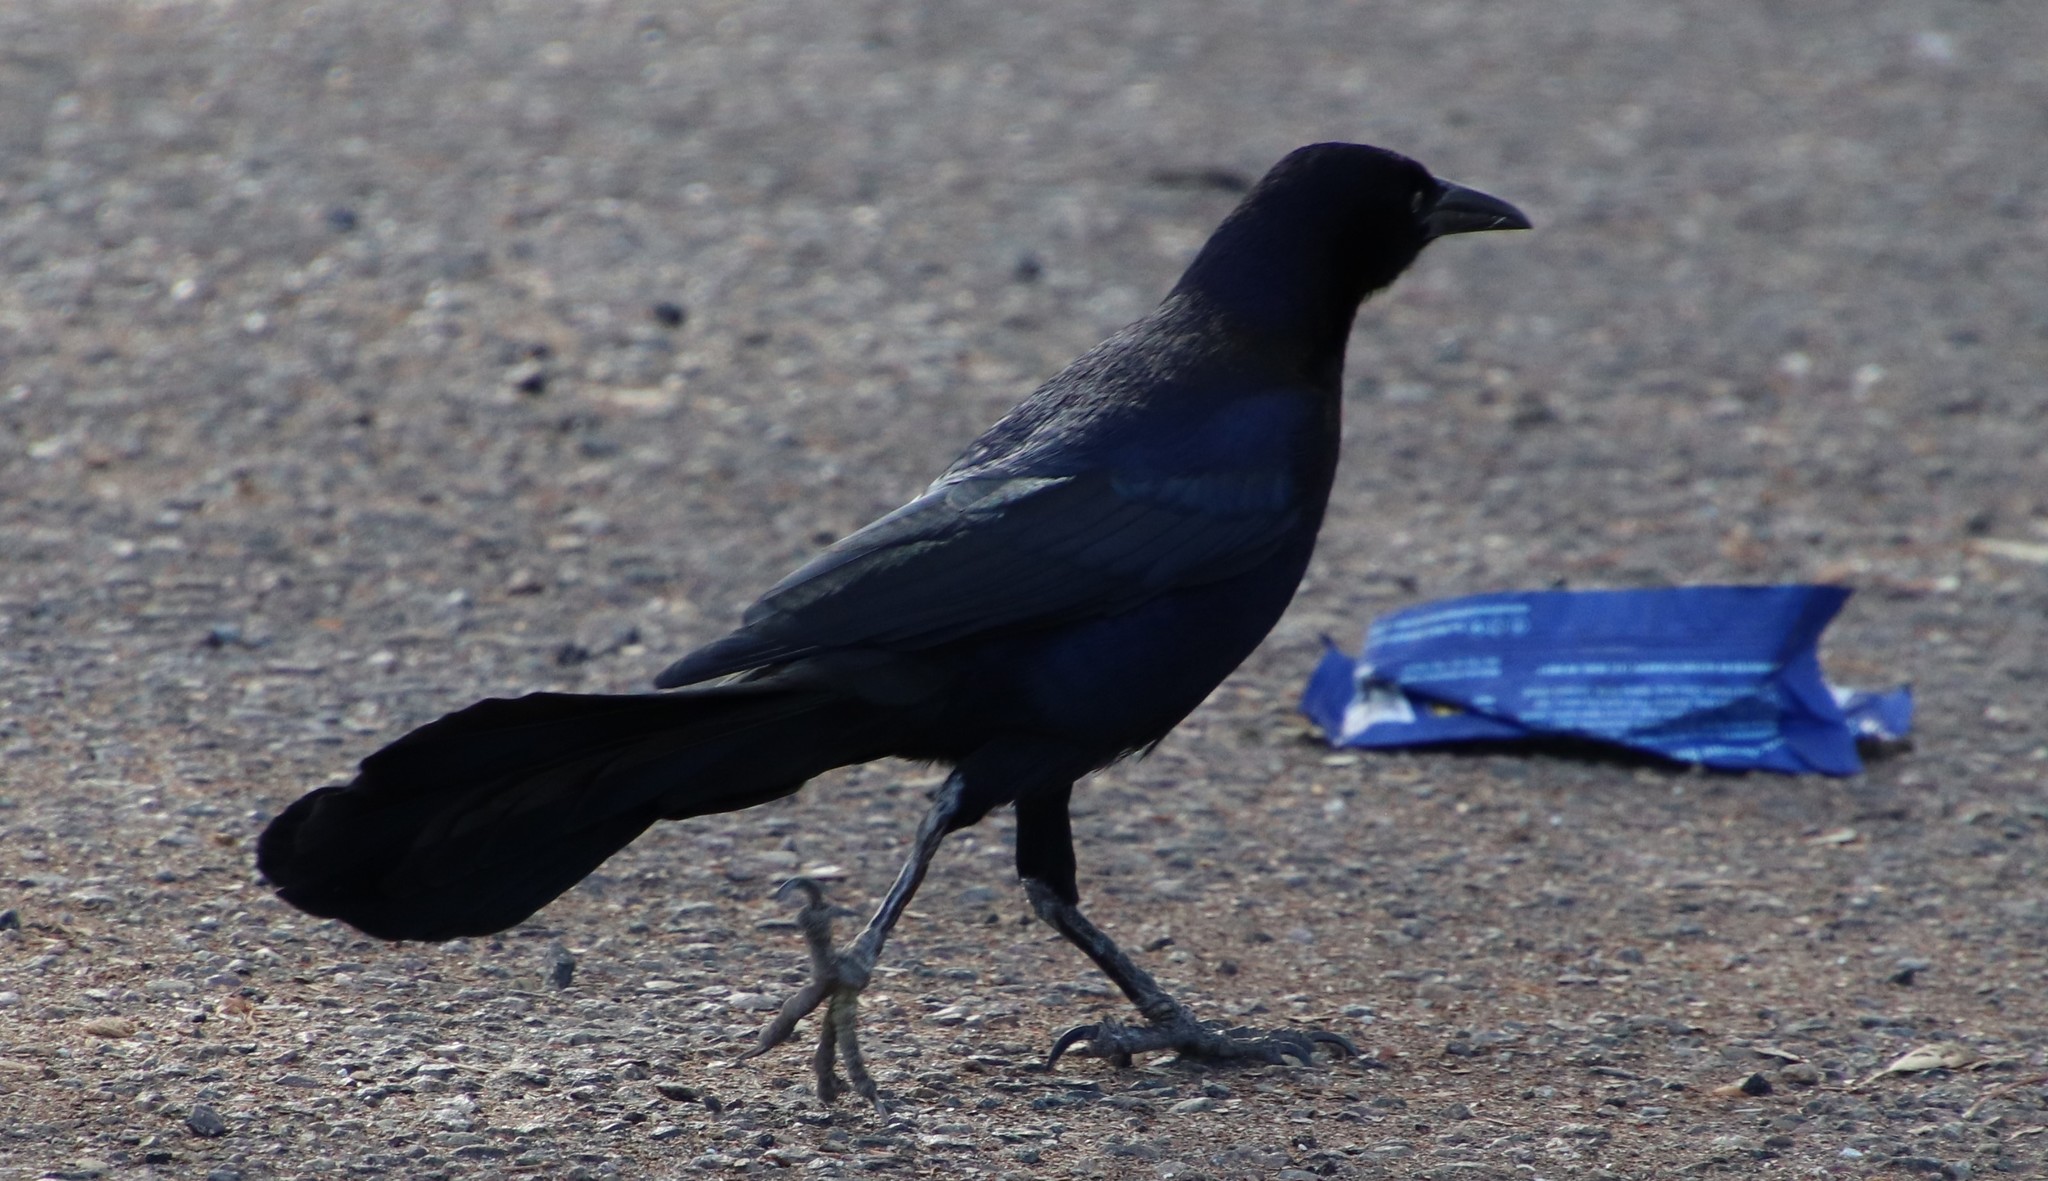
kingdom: Animalia
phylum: Chordata
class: Aves
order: Passeriformes
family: Icteridae
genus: Quiscalus
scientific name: Quiscalus mexicanus
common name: Great-tailed grackle
